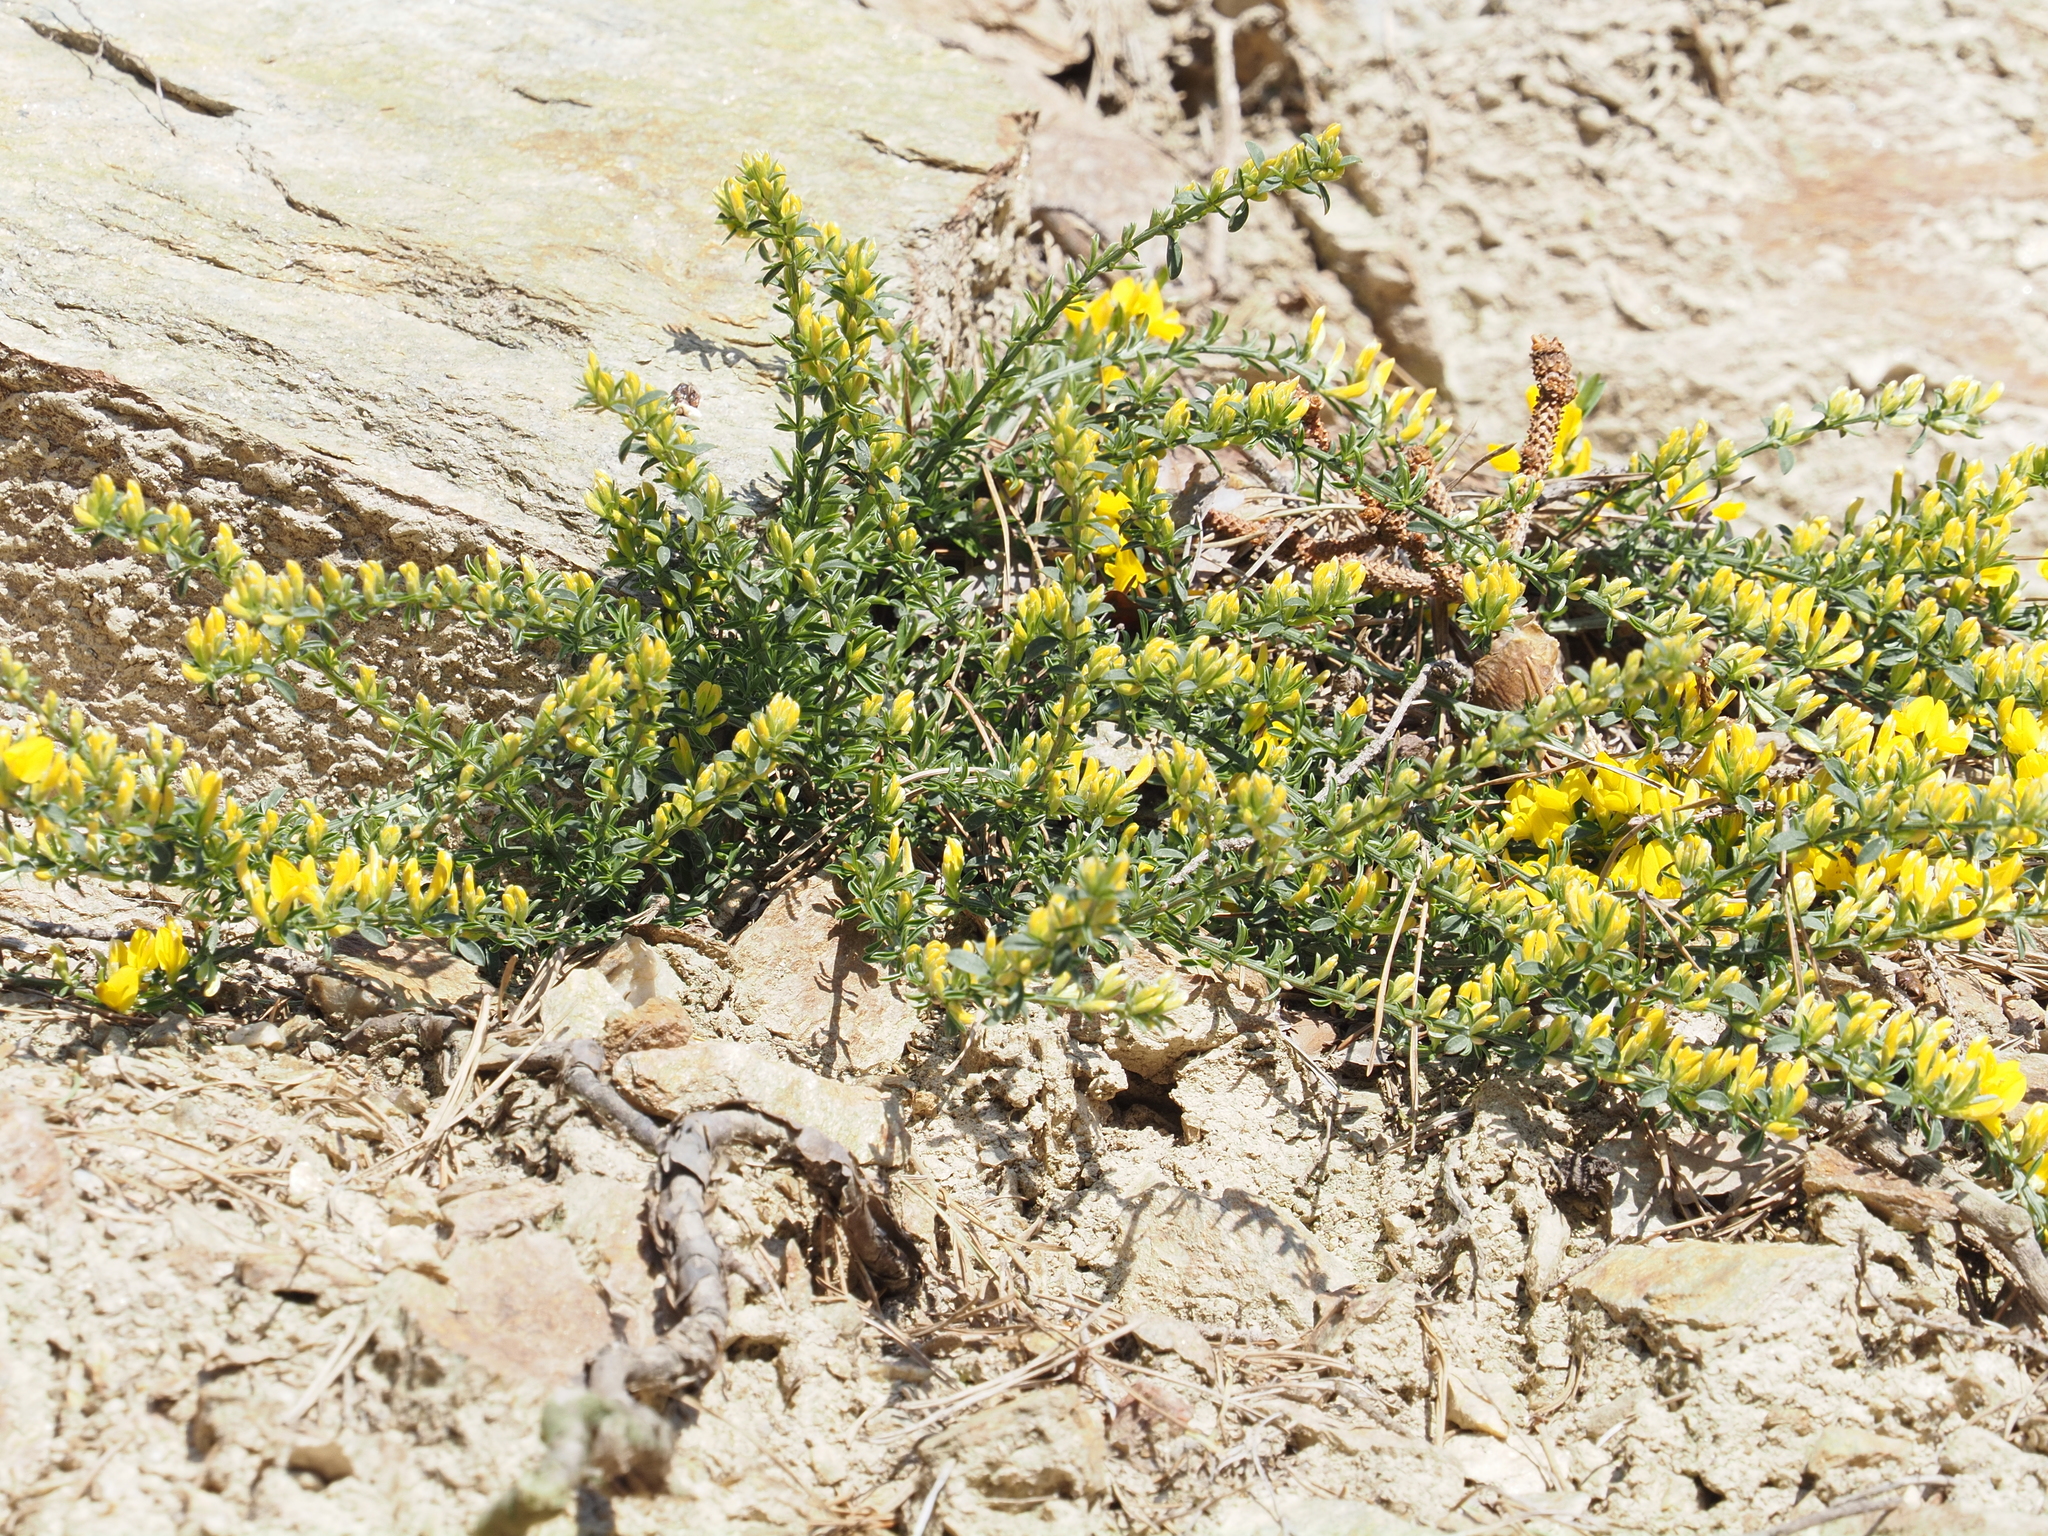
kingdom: Plantae
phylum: Tracheophyta
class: Magnoliopsida
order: Fabales
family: Fabaceae
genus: Genista
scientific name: Genista pilosa
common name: Hairy greenweed
